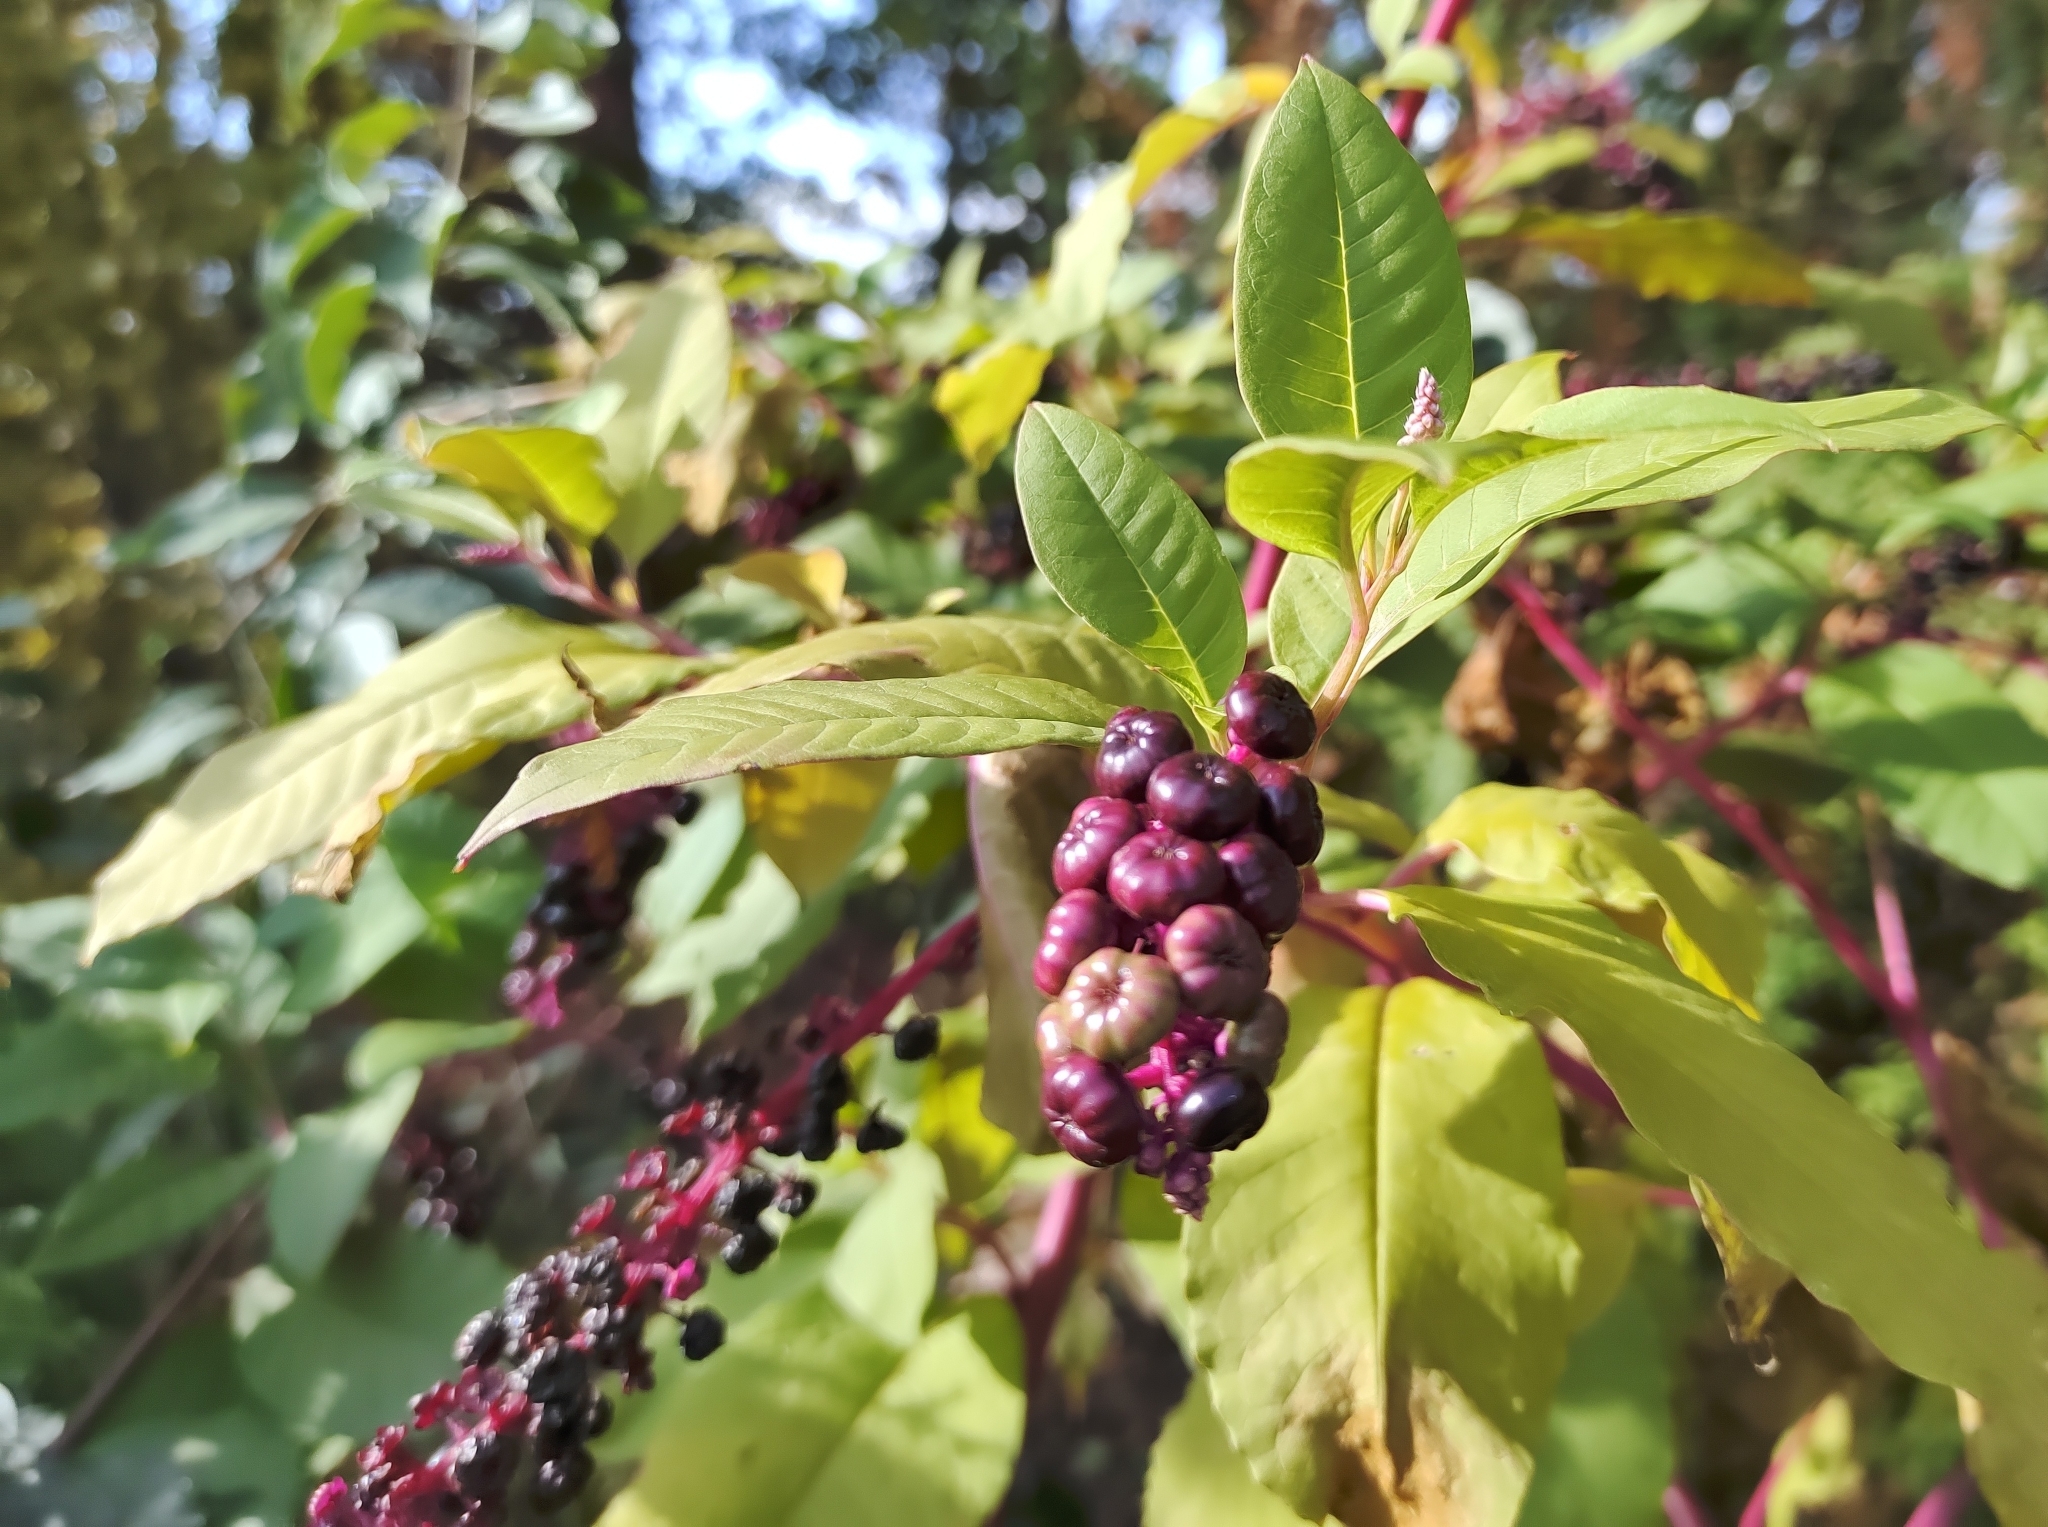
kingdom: Plantae
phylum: Tracheophyta
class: Magnoliopsida
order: Caryophyllales
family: Phytolaccaceae
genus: Phytolacca
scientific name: Phytolacca americana
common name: American pokeweed
